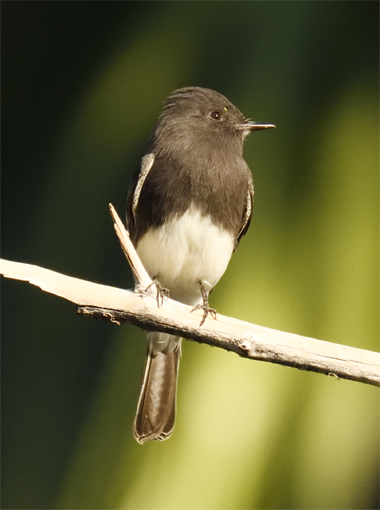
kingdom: Animalia
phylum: Chordata
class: Aves
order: Passeriformes
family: Tyrannidae
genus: Sayornis
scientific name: Sayornis nigricans
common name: Black phoebe
